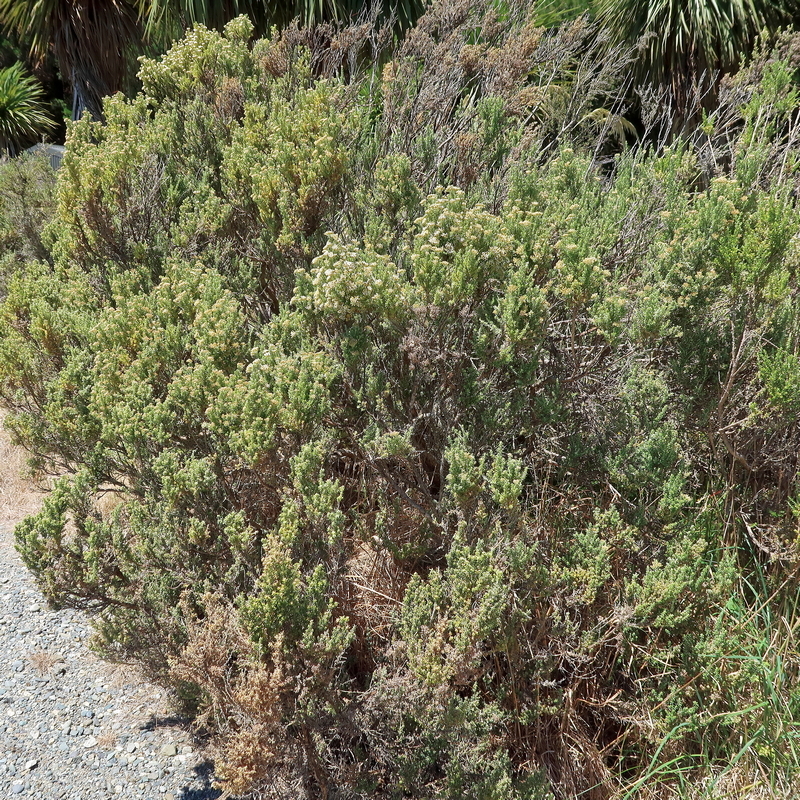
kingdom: Plantae
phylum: Tracheophyta
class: Magnoliopsida
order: Asterales
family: Asteraceae
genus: Ozothamnus
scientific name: Ozothamnus leptophyllus
